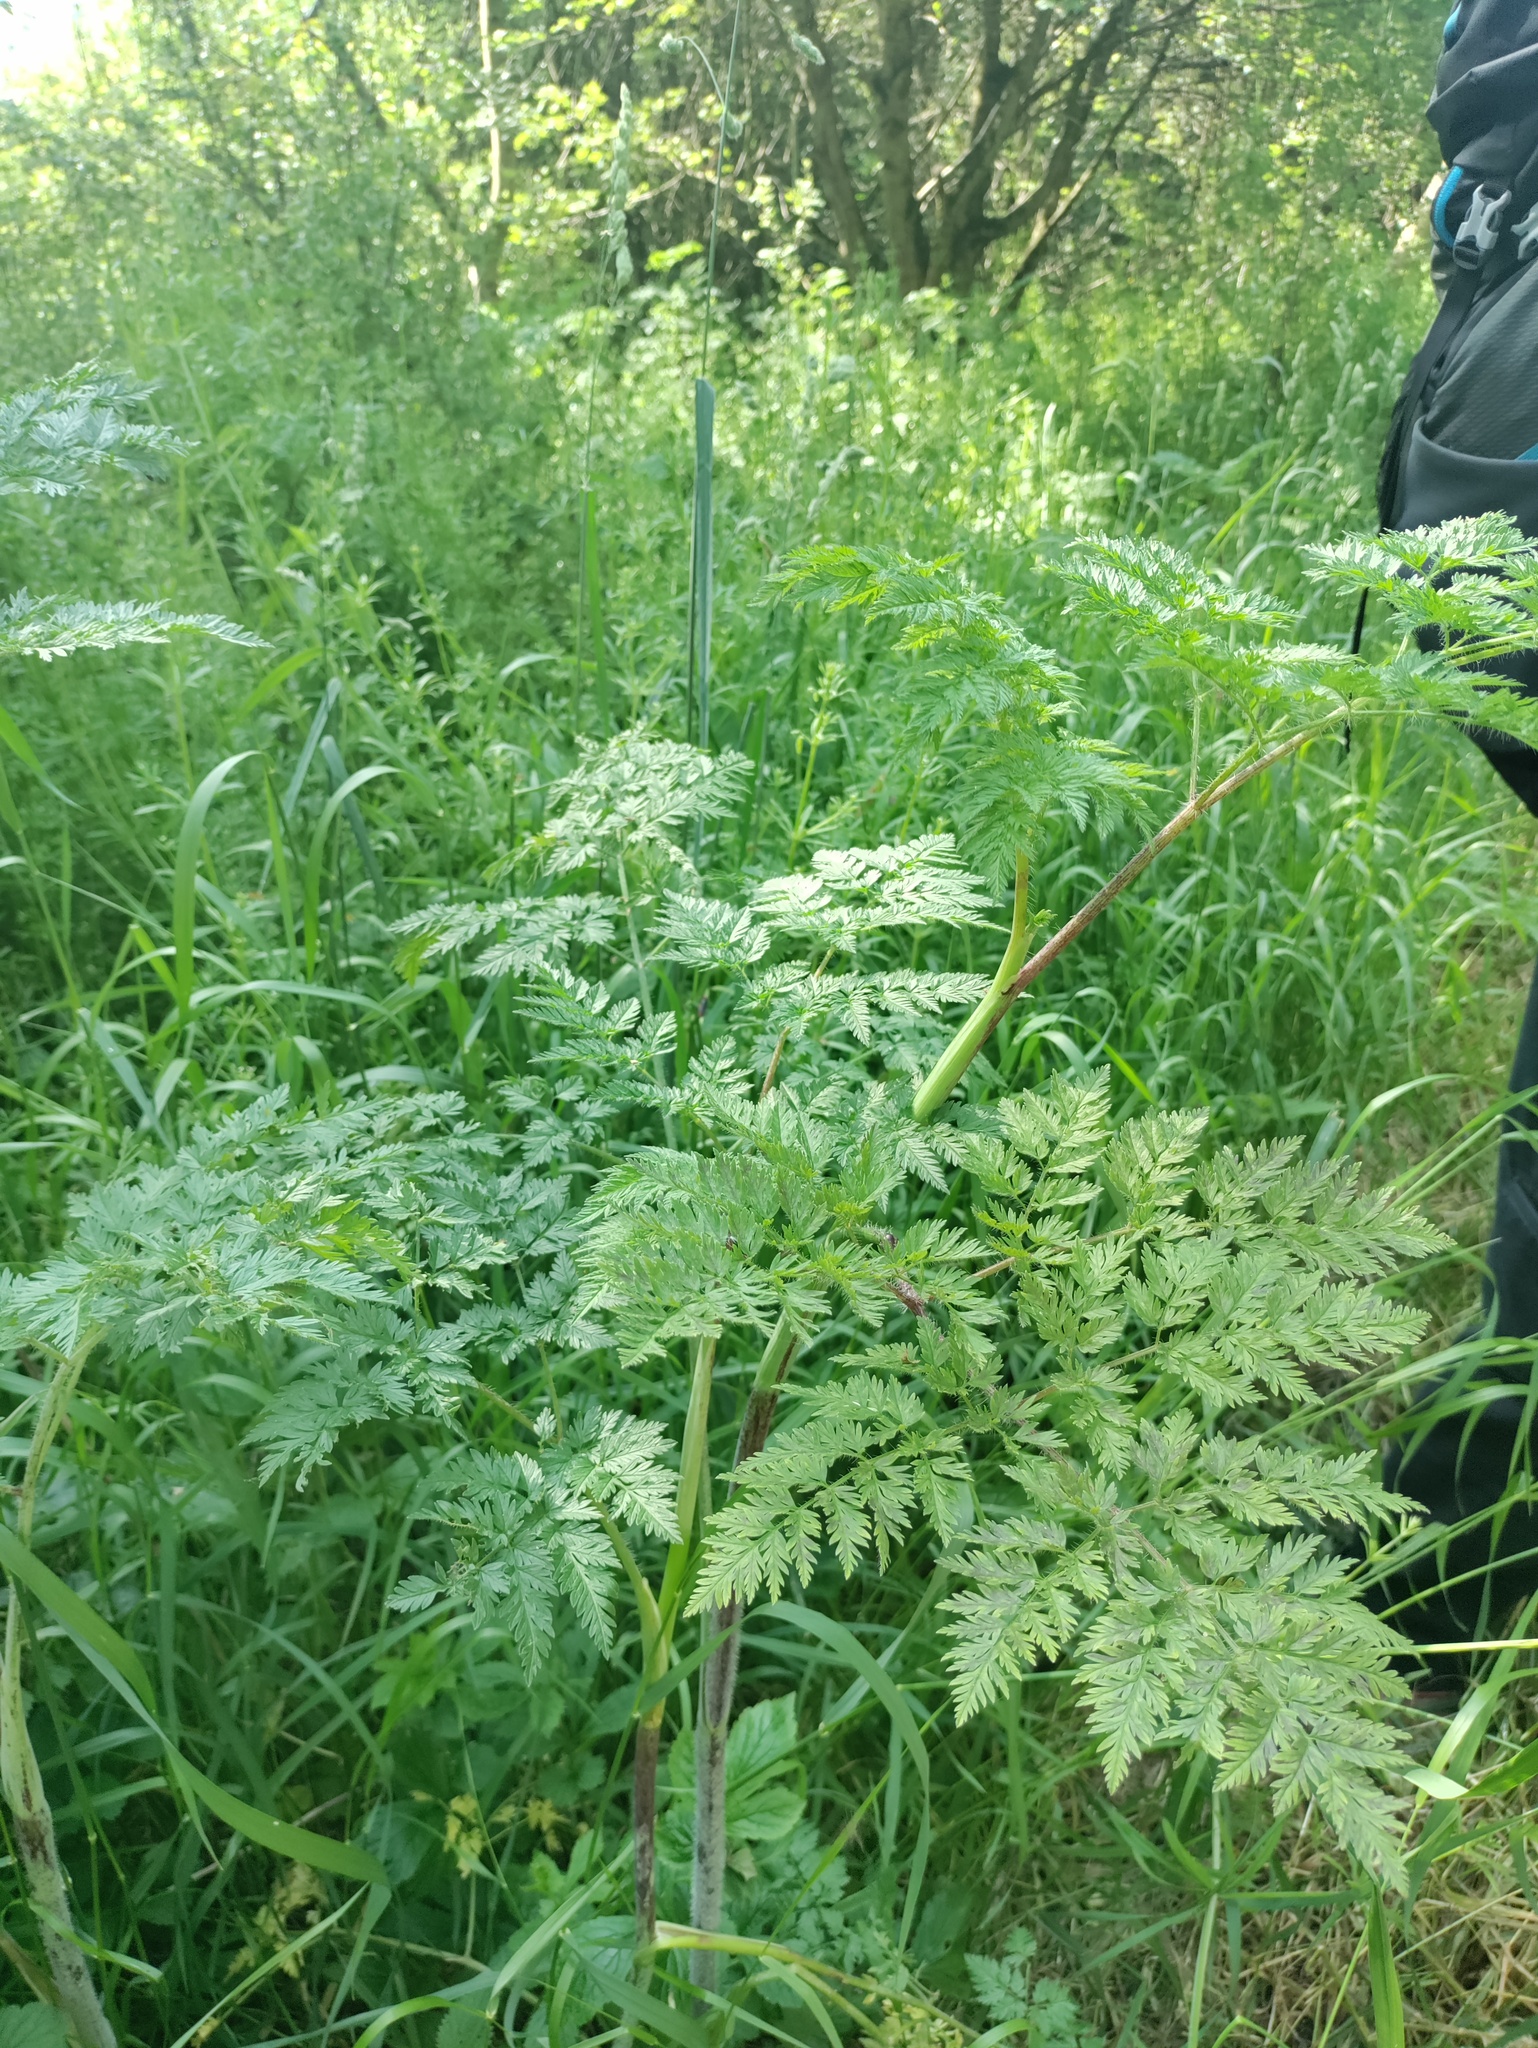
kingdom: Plantae
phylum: Tracheophyta
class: Magnoliopsida
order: Apiales
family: Apiaceae
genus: Chaerophyllum
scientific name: Chaerophyllum bulbosum
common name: Bulbous chervil
